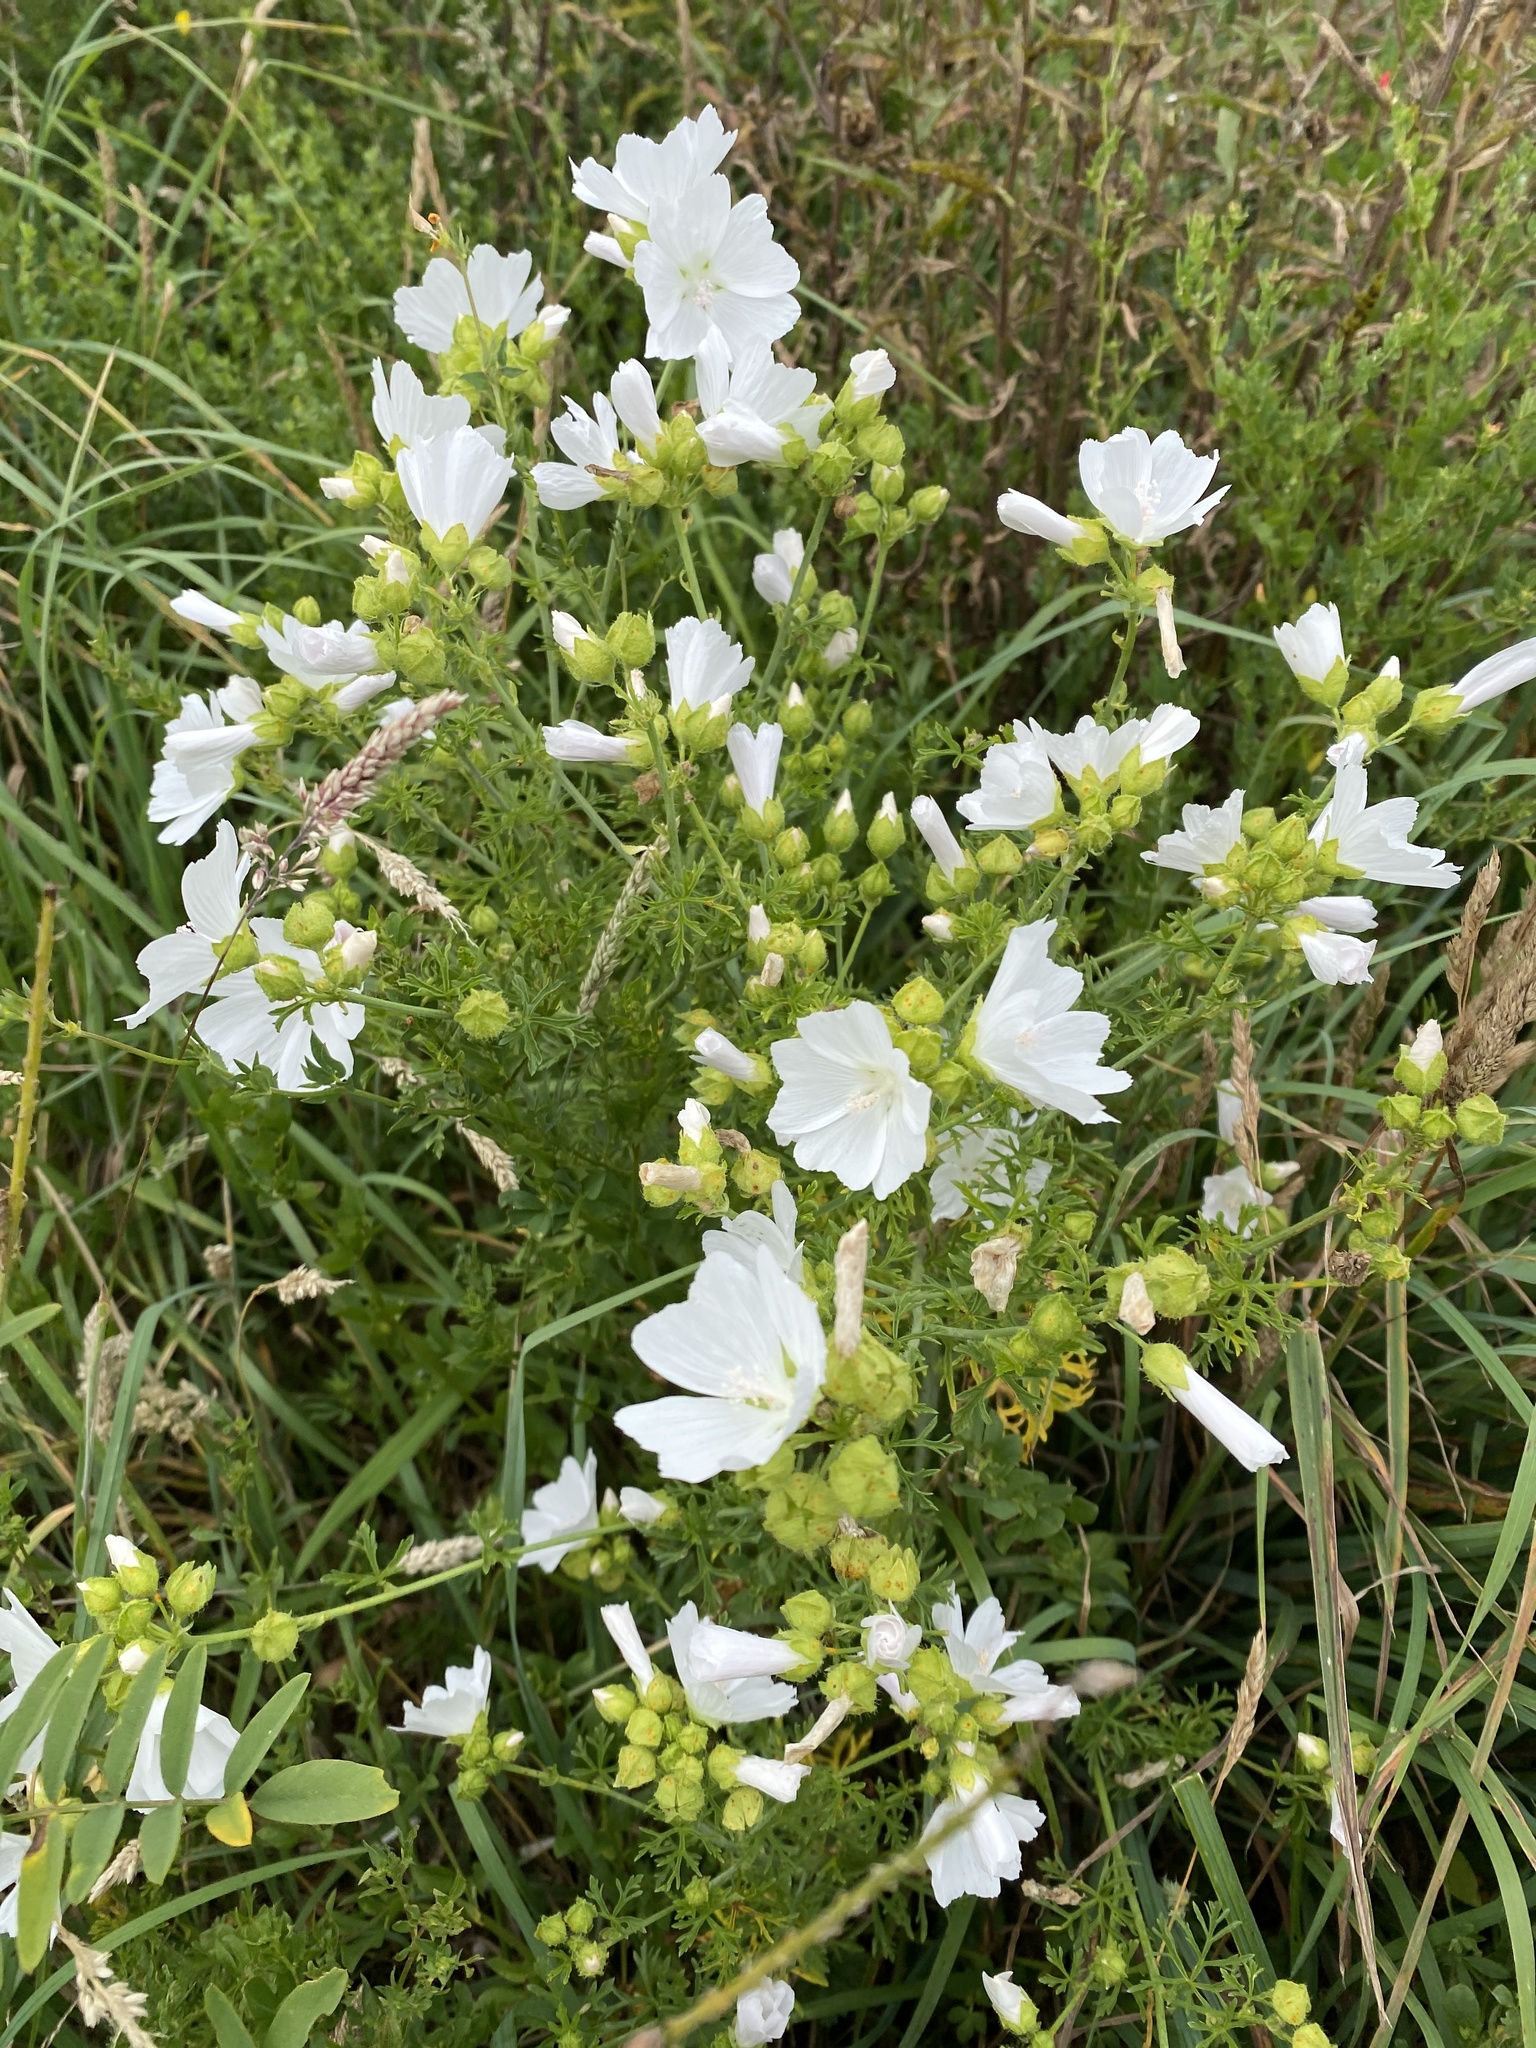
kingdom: Plantae
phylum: Tracheophyta
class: Magnoliopsida
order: Malvales
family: Malvaceae
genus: Malva
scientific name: Malva moschata
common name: Musk mallow
